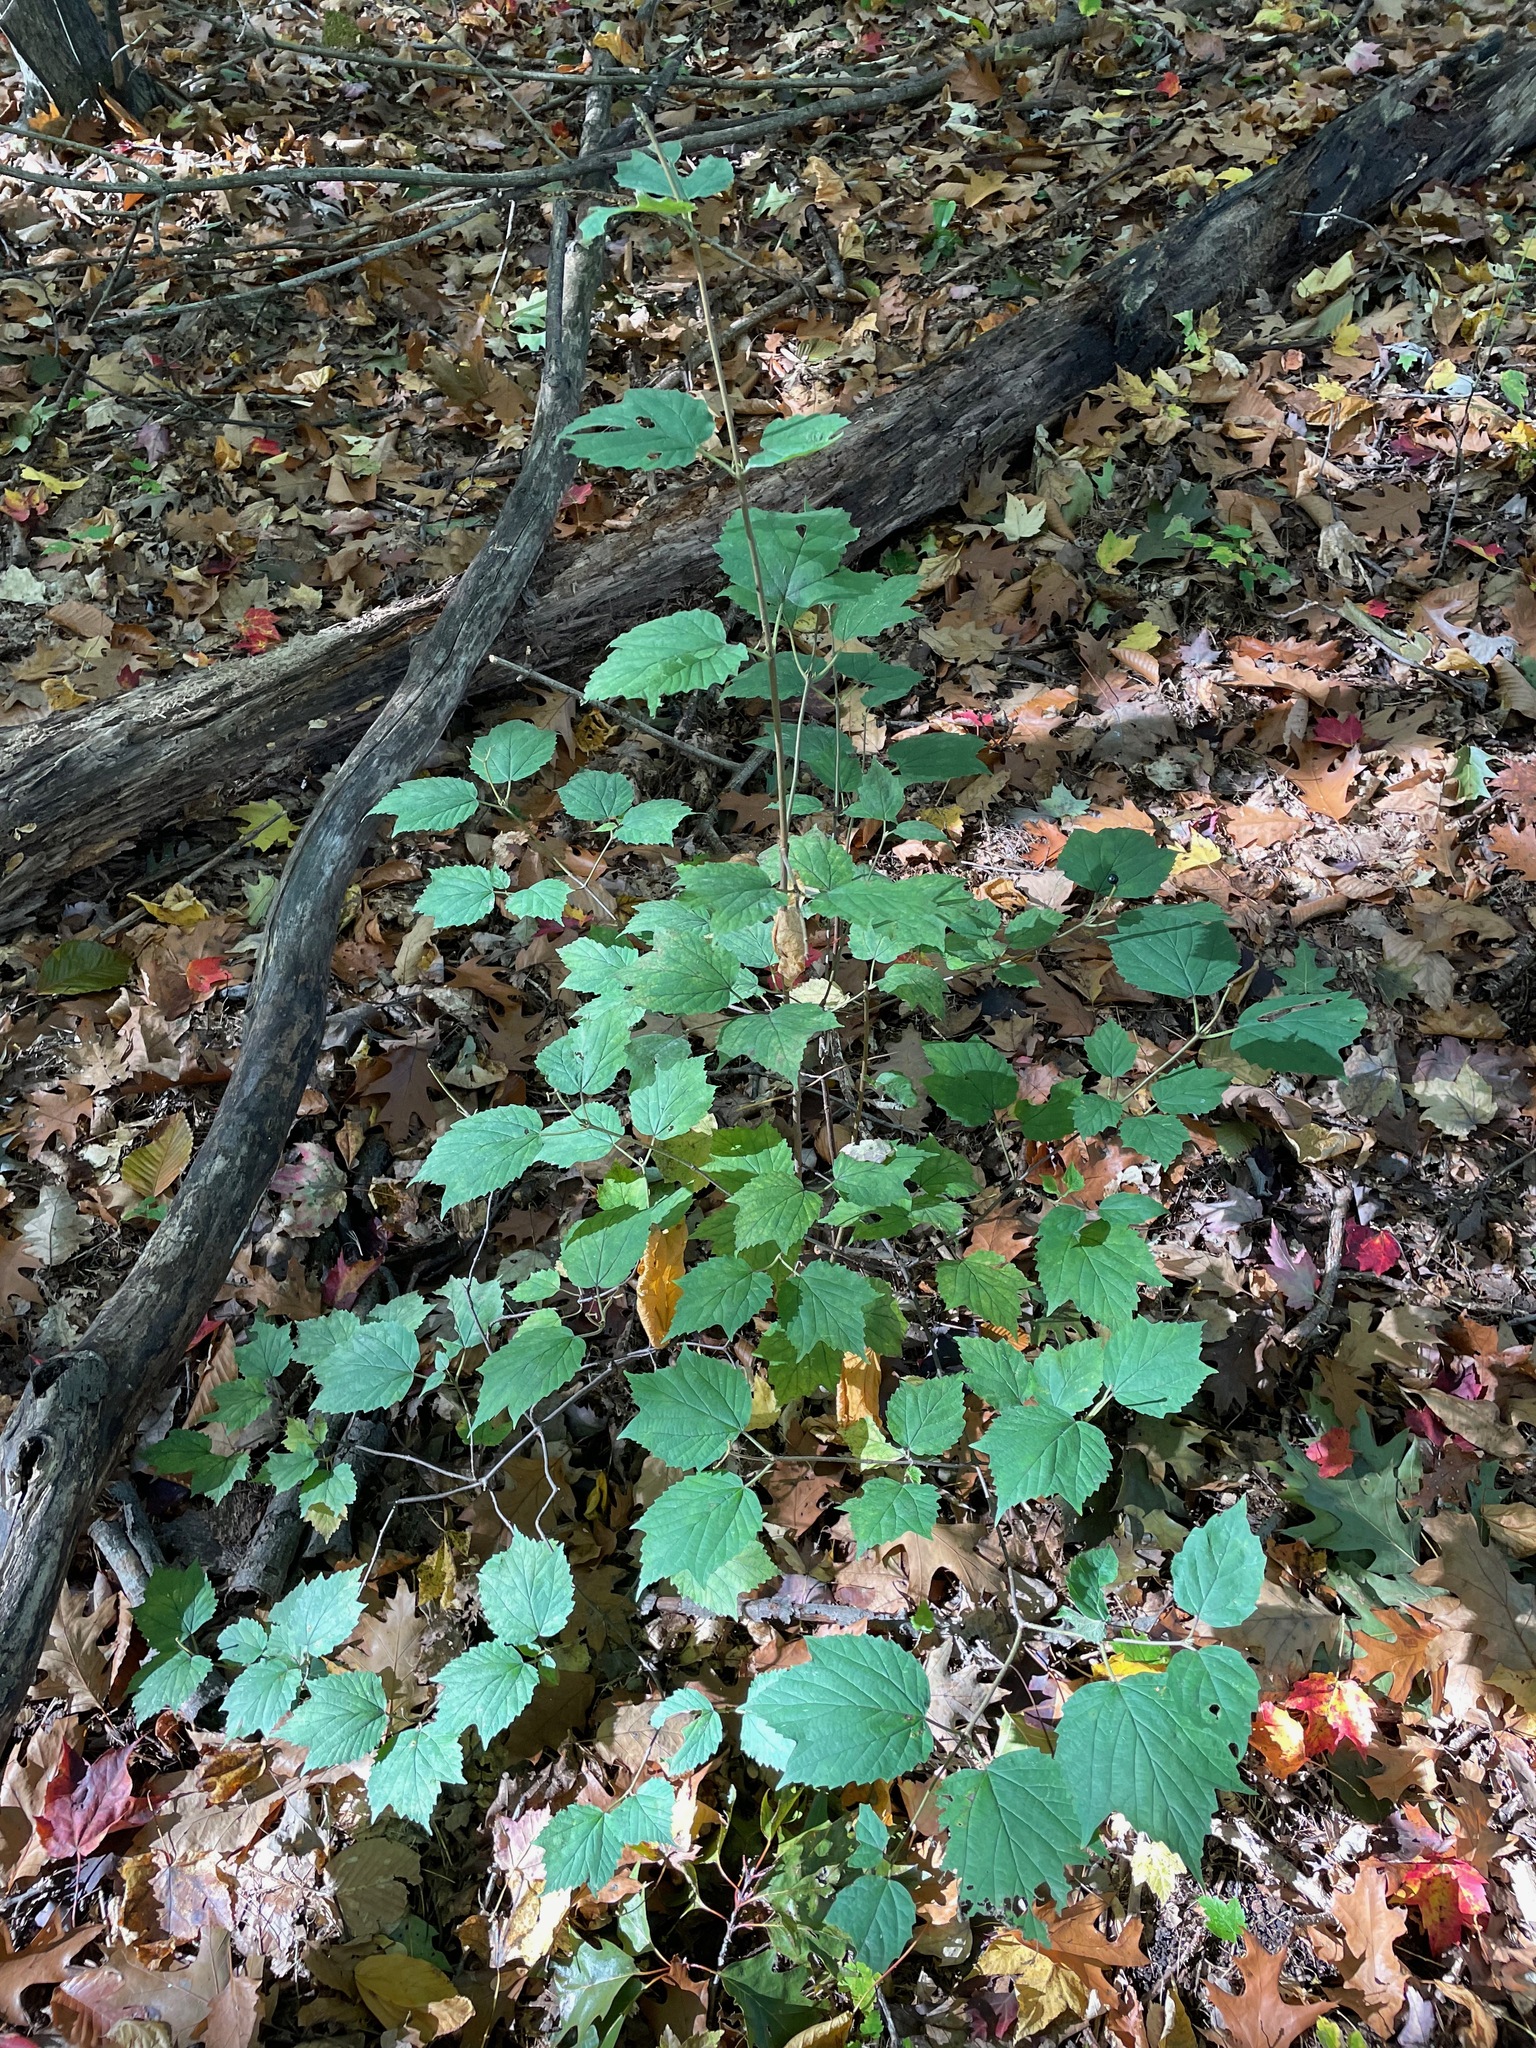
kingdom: Plantae
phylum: Tracheophyta
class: Magnoliopsida
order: Dipsacales
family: Viburnaceae
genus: Viburnum
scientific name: Viburnum acerifolium
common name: Dockmackie
